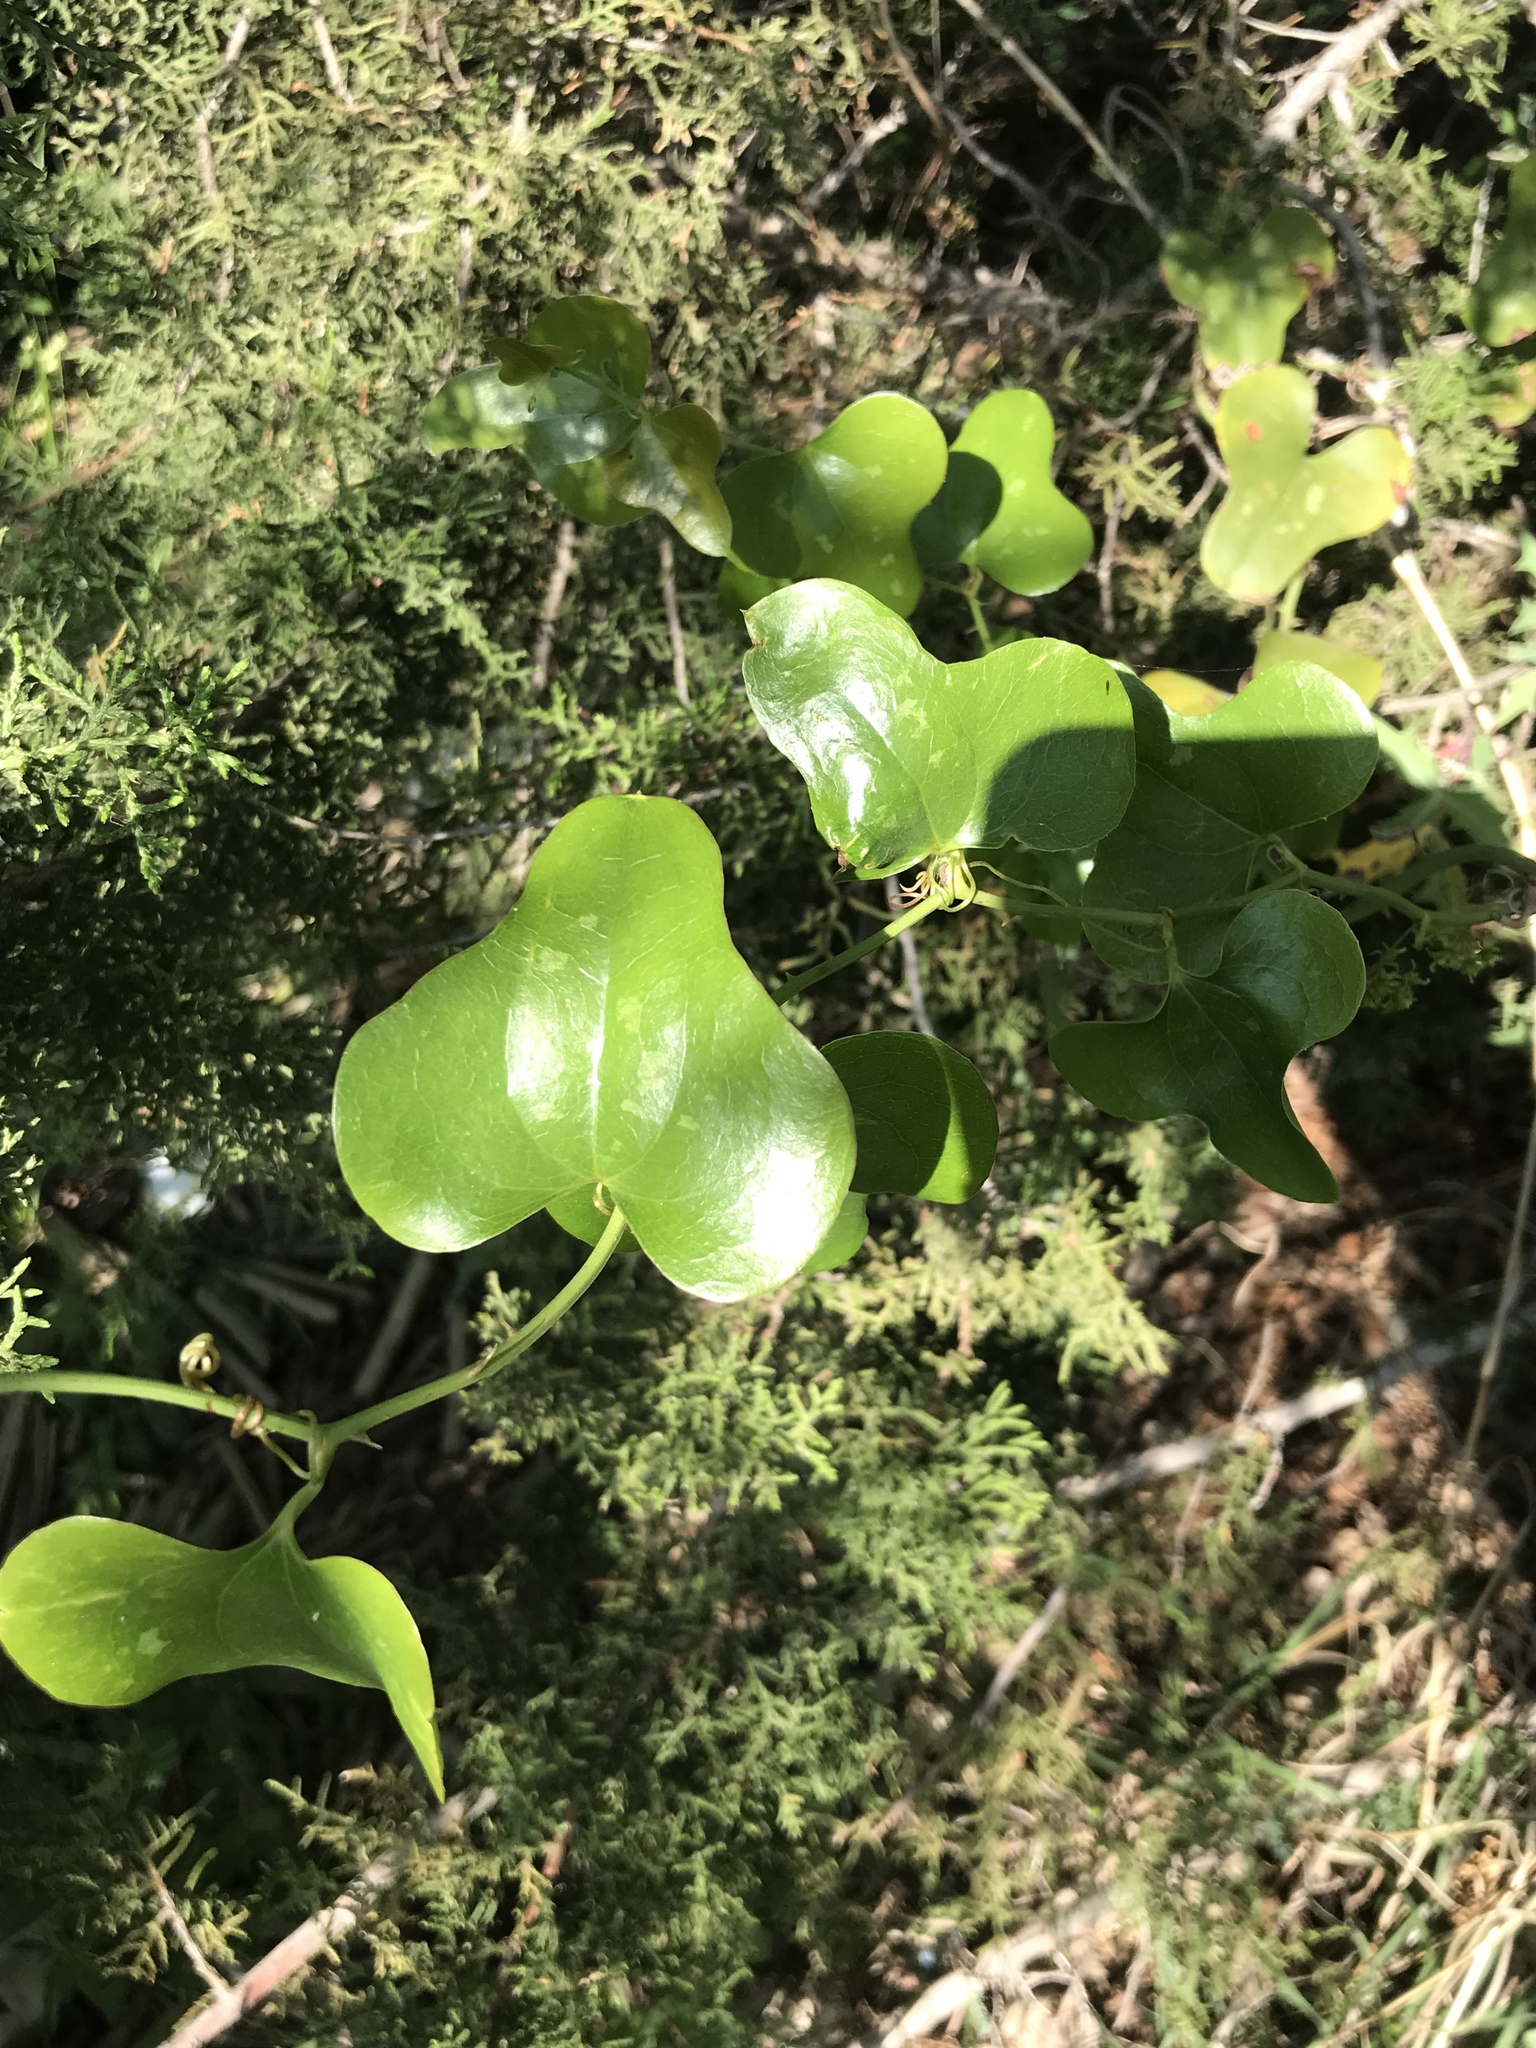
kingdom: Plantae
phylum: Tracheophyta
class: Liliopsida
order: Liliales
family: Smilacaceae
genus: Smilax
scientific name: Smilax bona-nox
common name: Catbrier
